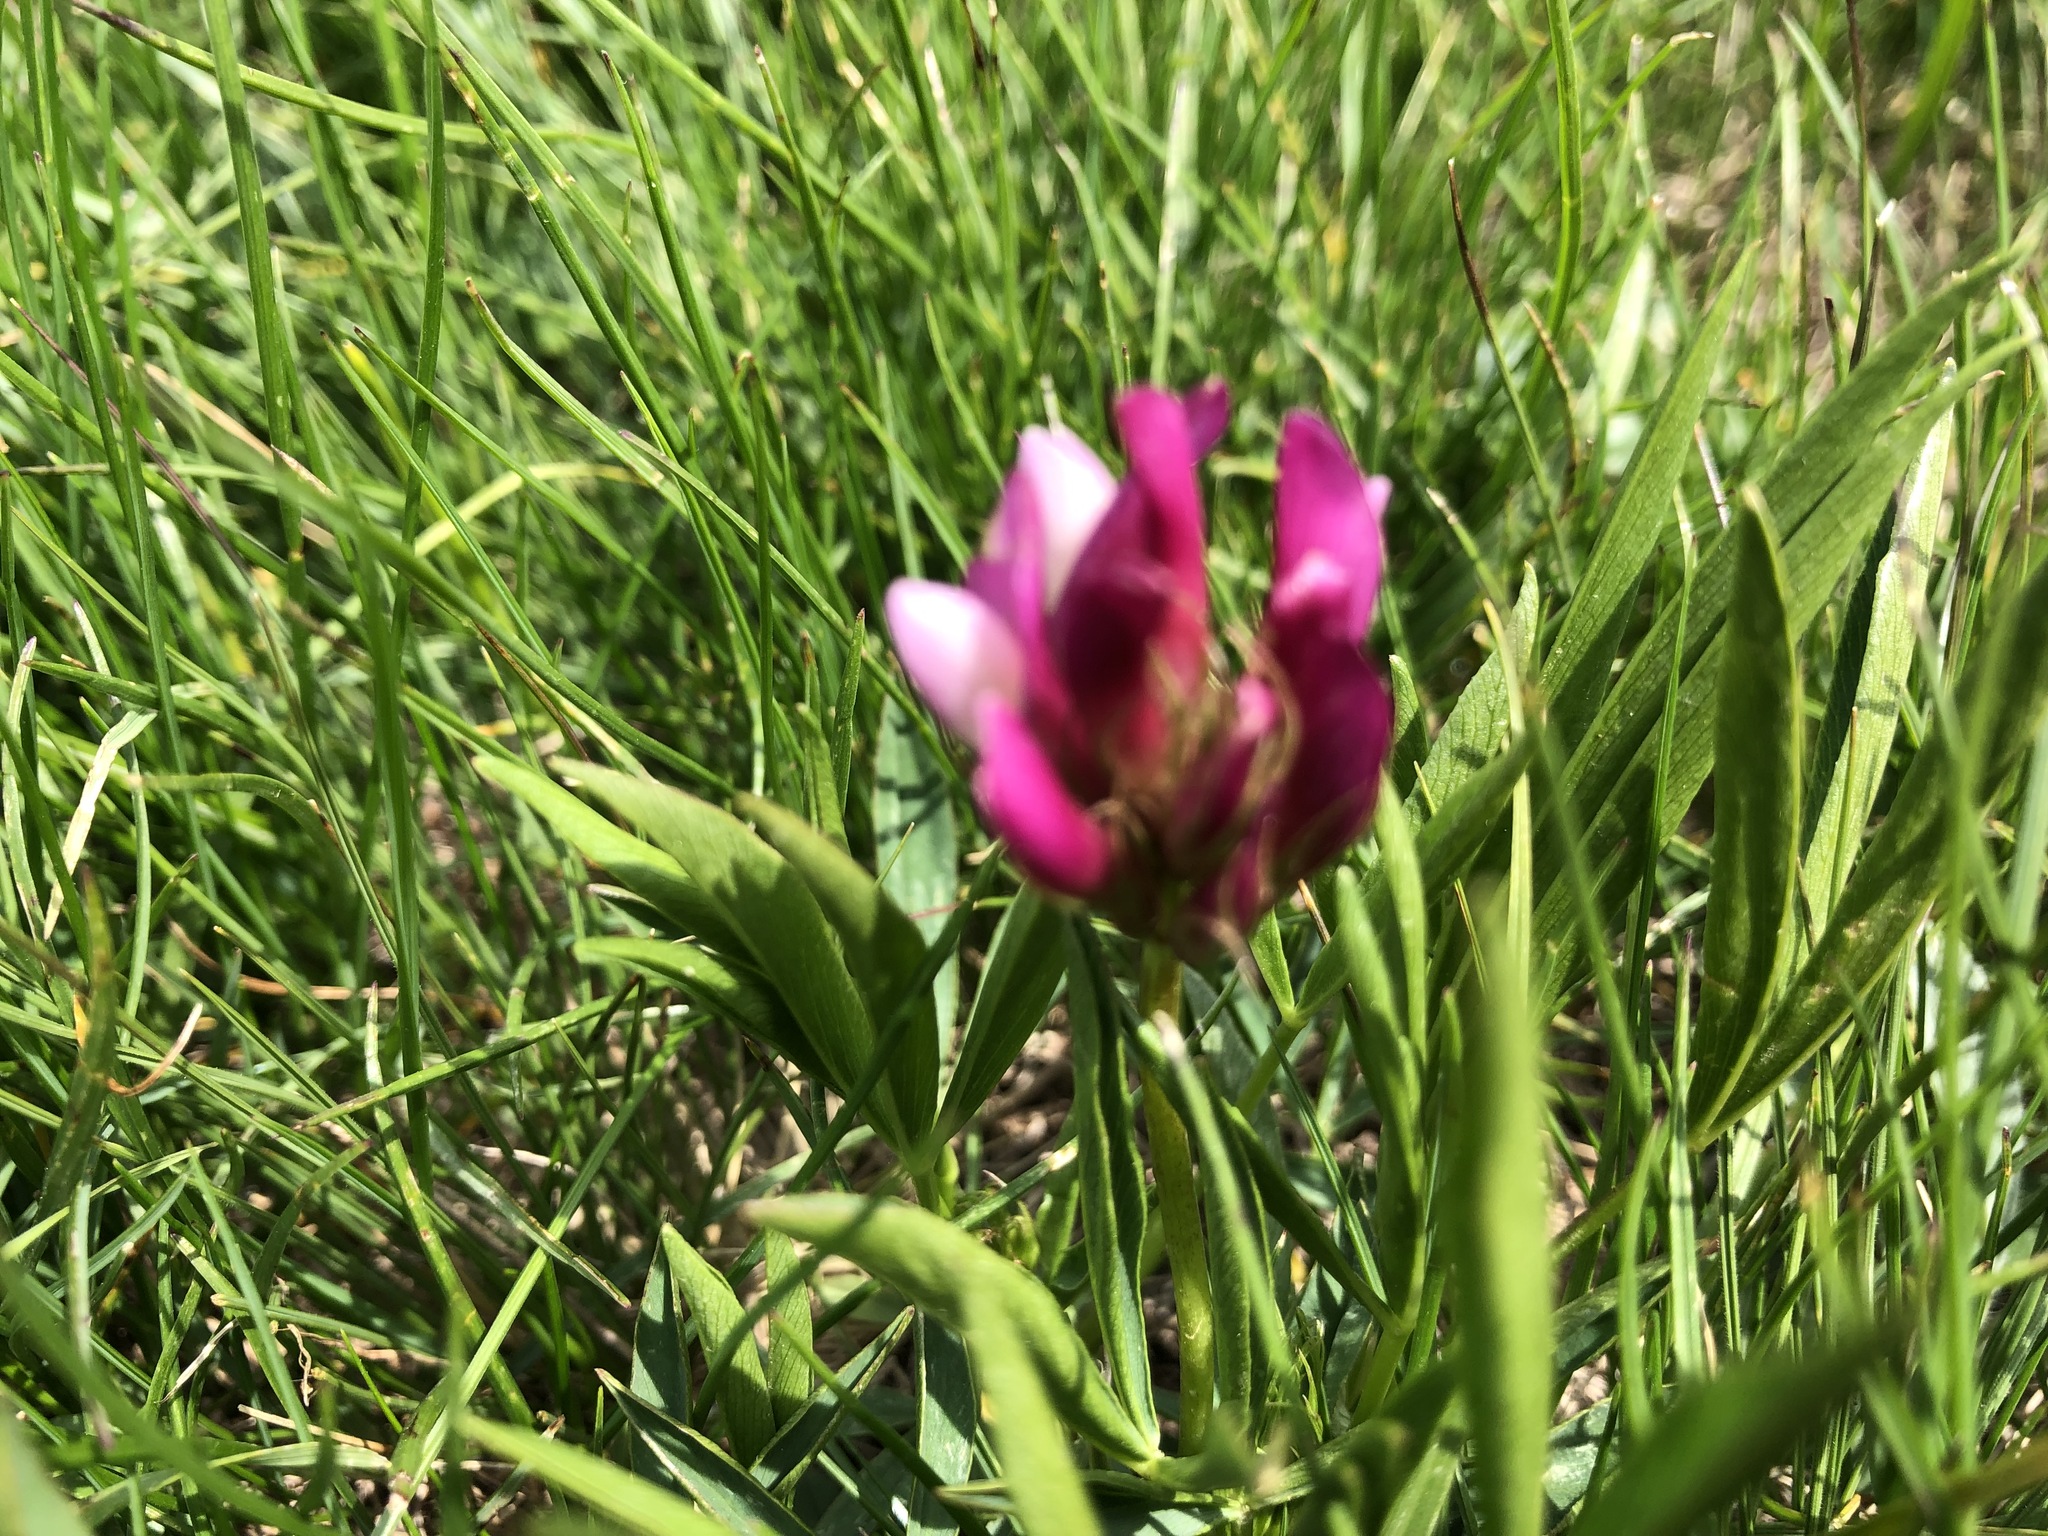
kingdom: Plantae
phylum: Tracheophyta
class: Magnoliopsida
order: Fabales
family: Fabaceae
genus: Trifolium
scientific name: Trifolium alpinum
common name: Alpine clover
